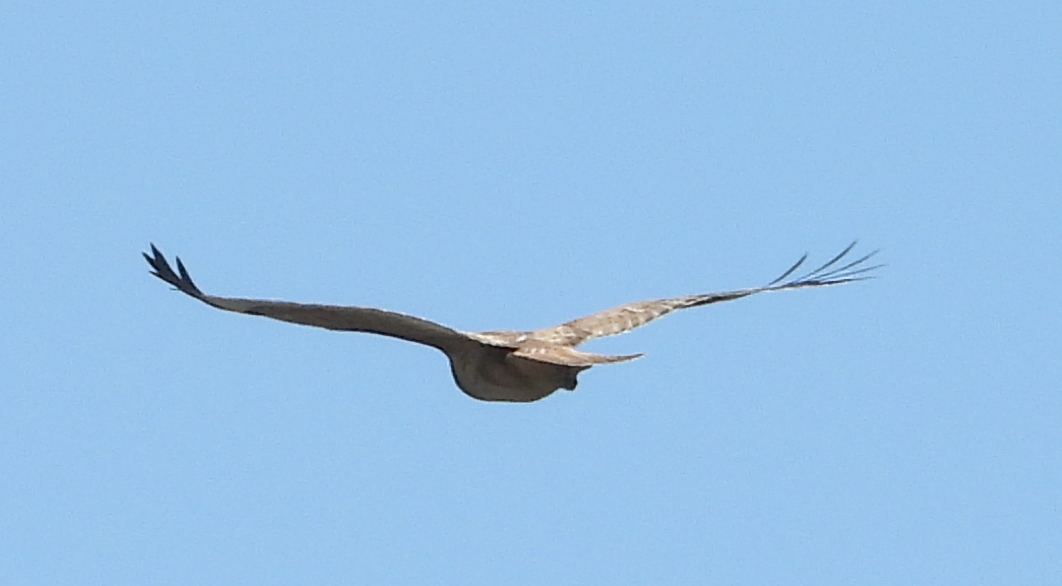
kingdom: Animalia
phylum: Chordata
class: Aves
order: Accipitriformes
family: Accipitridae
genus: Buteo
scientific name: Buteo rufofuscus
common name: Jackal buzzard
